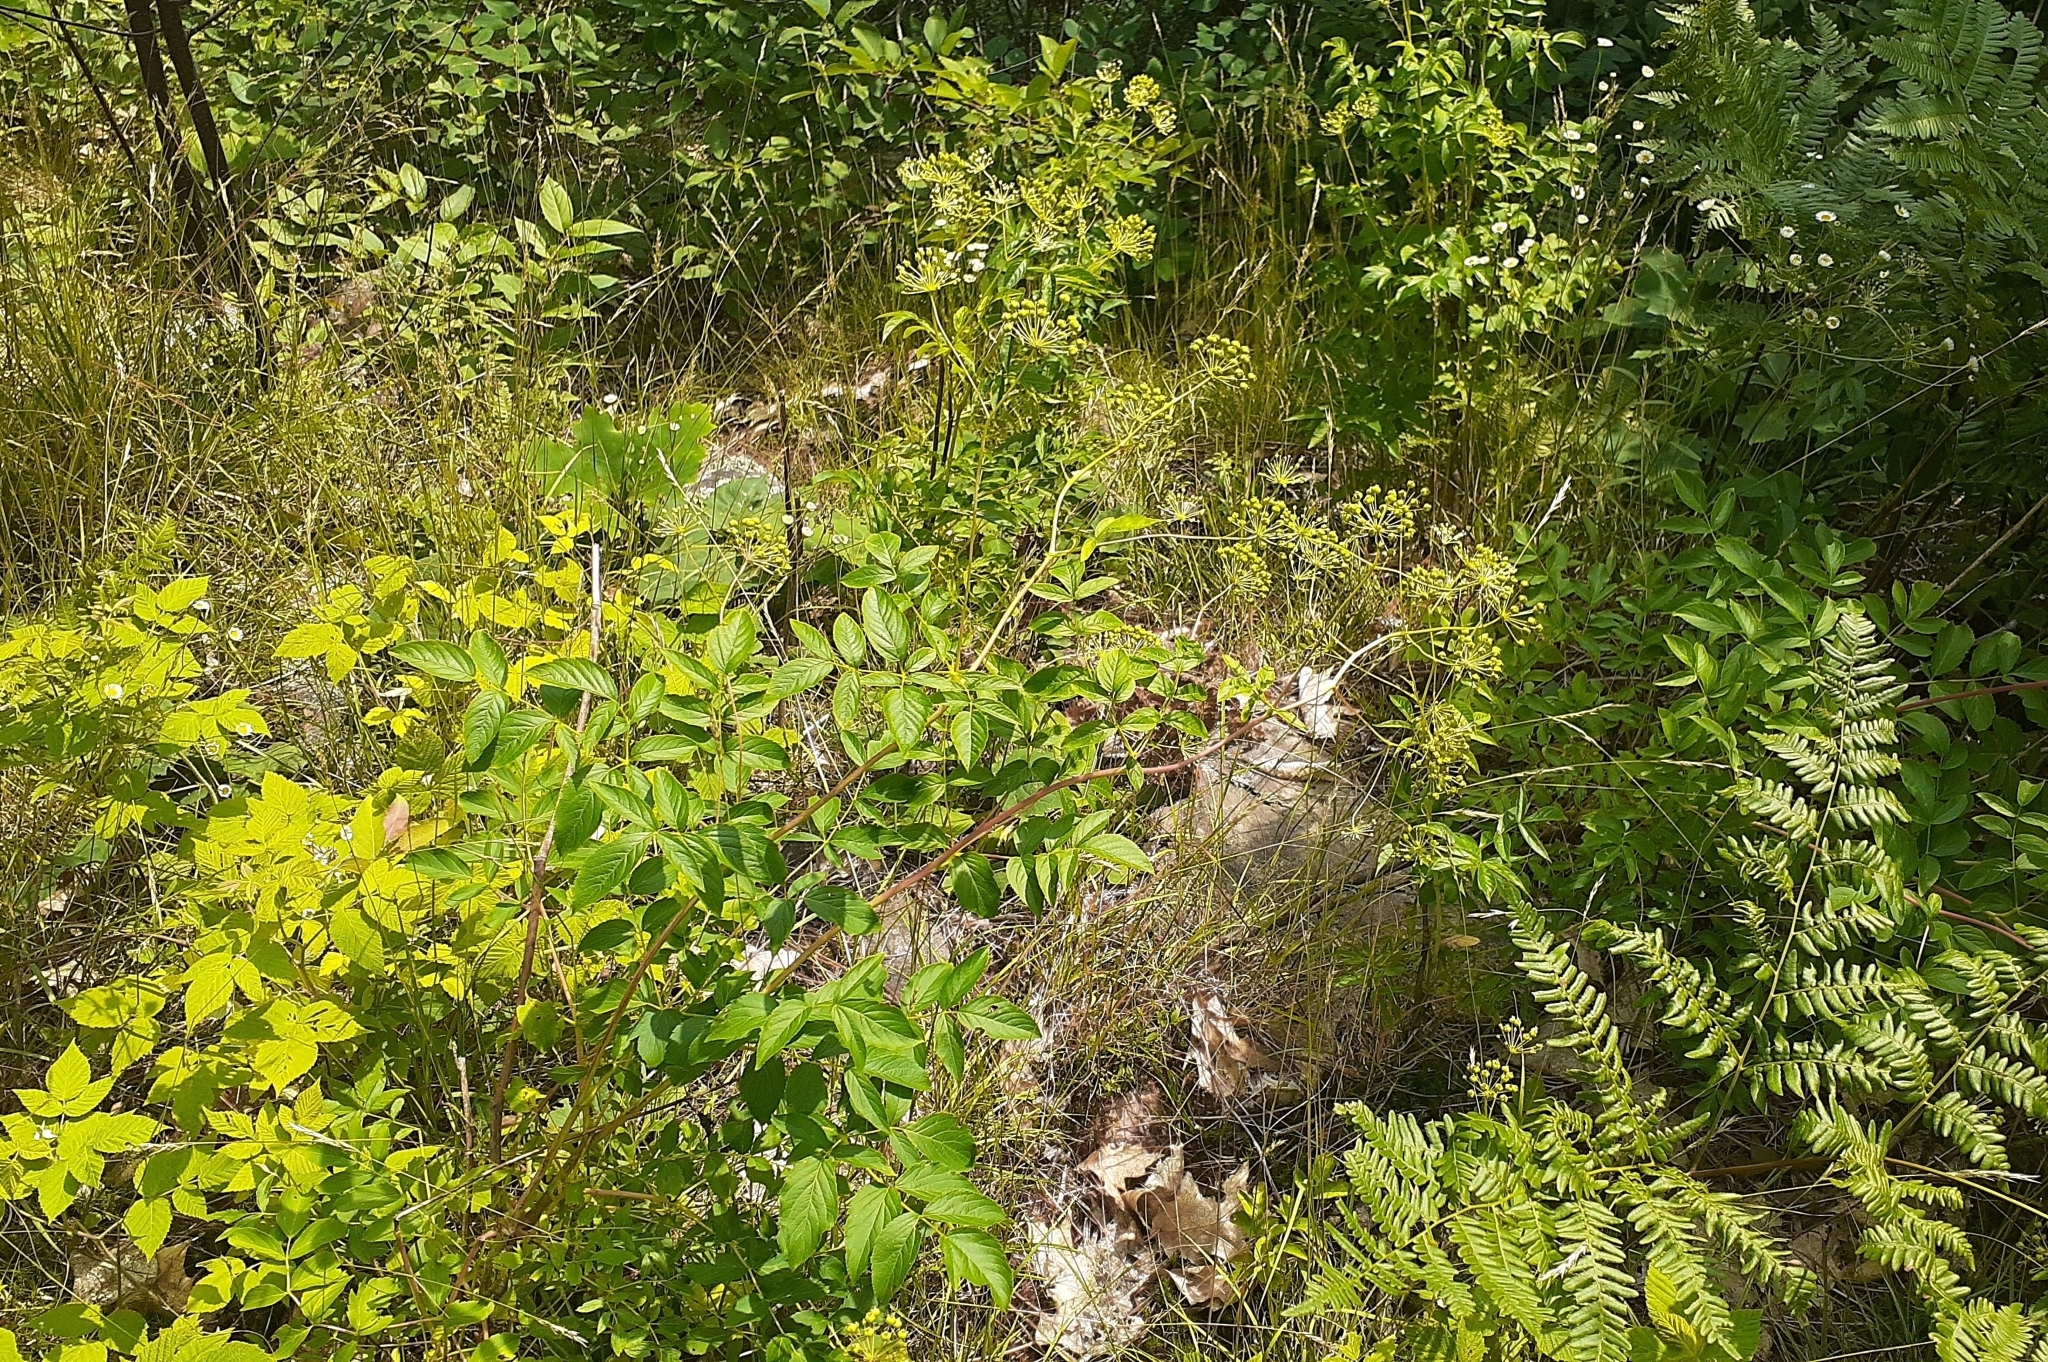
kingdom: Plantae
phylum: Tracheophyta
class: Magnoliopsida
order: Apiales
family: Araliaceae
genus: Aralia
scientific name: Aralia hispida
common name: Bristly sarsaparilla
